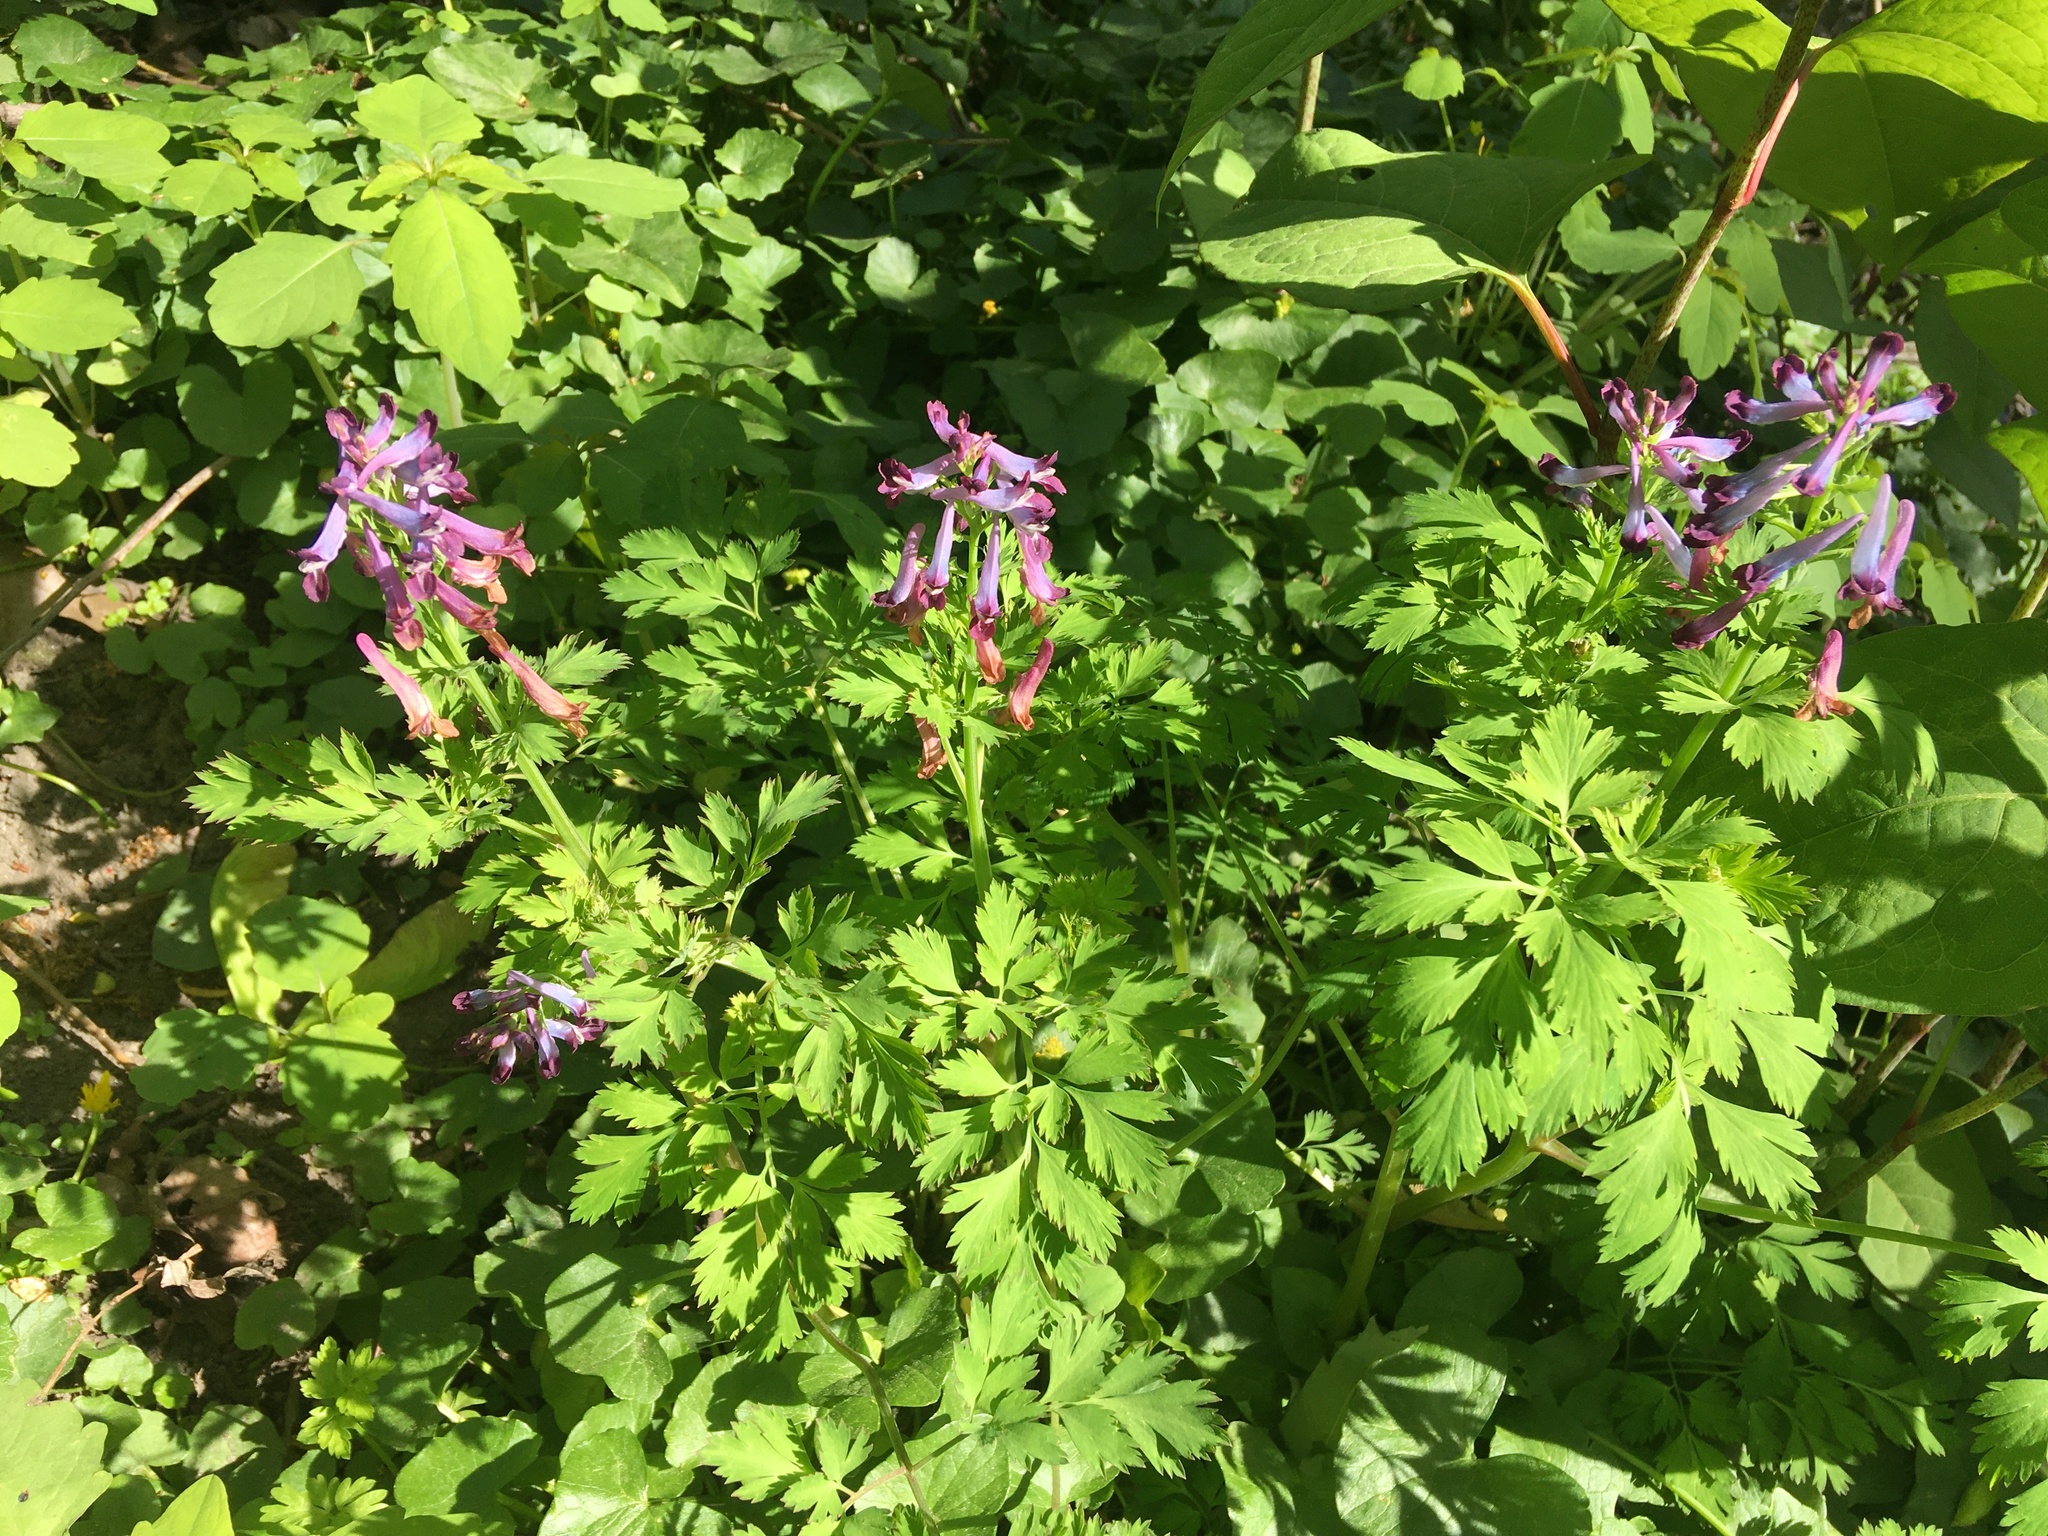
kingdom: Plantae
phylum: Tracheophyta
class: Magnoliopsida
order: Ranunculales
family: Papaveraceae
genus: Corydalis
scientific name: Corydalis incisa
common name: Incised fumewort
